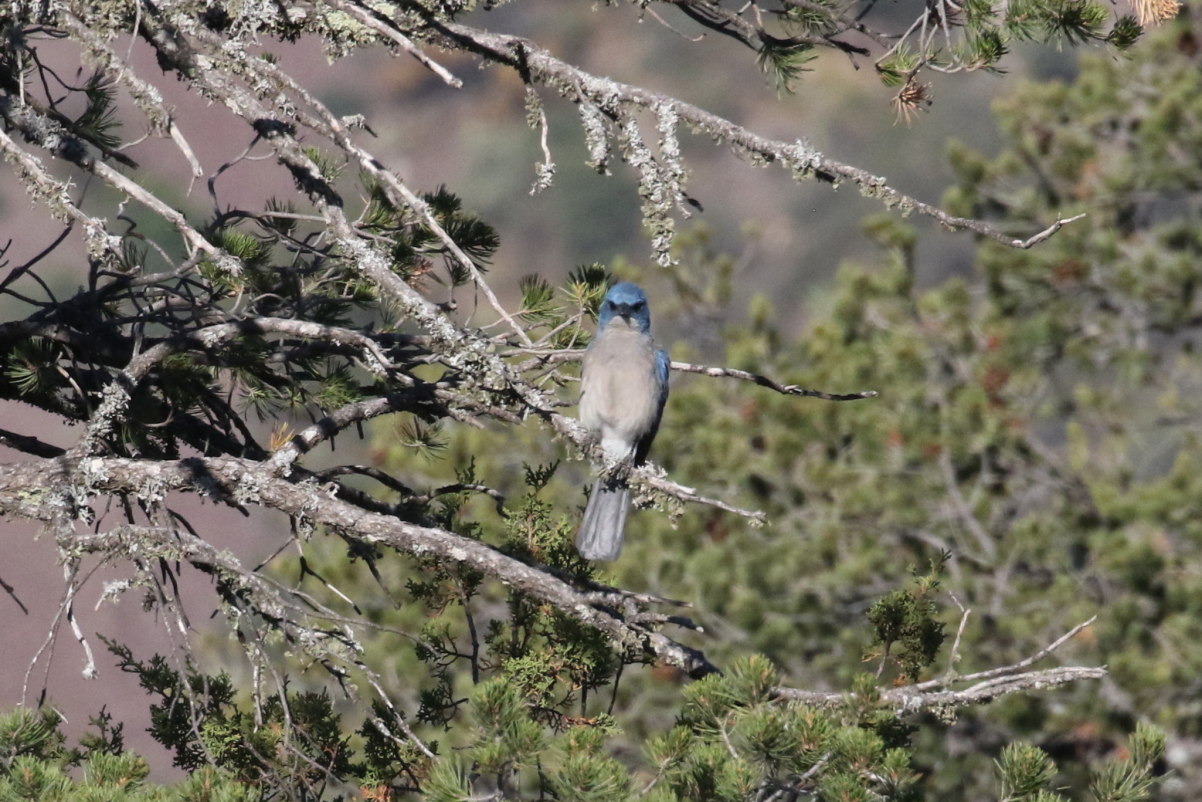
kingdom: Animalia
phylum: Chordata
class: Aves
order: Passeriformes
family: Corvidae
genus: Aphelocoma
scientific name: Aphelocoma wollweberi
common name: Mexican jay
